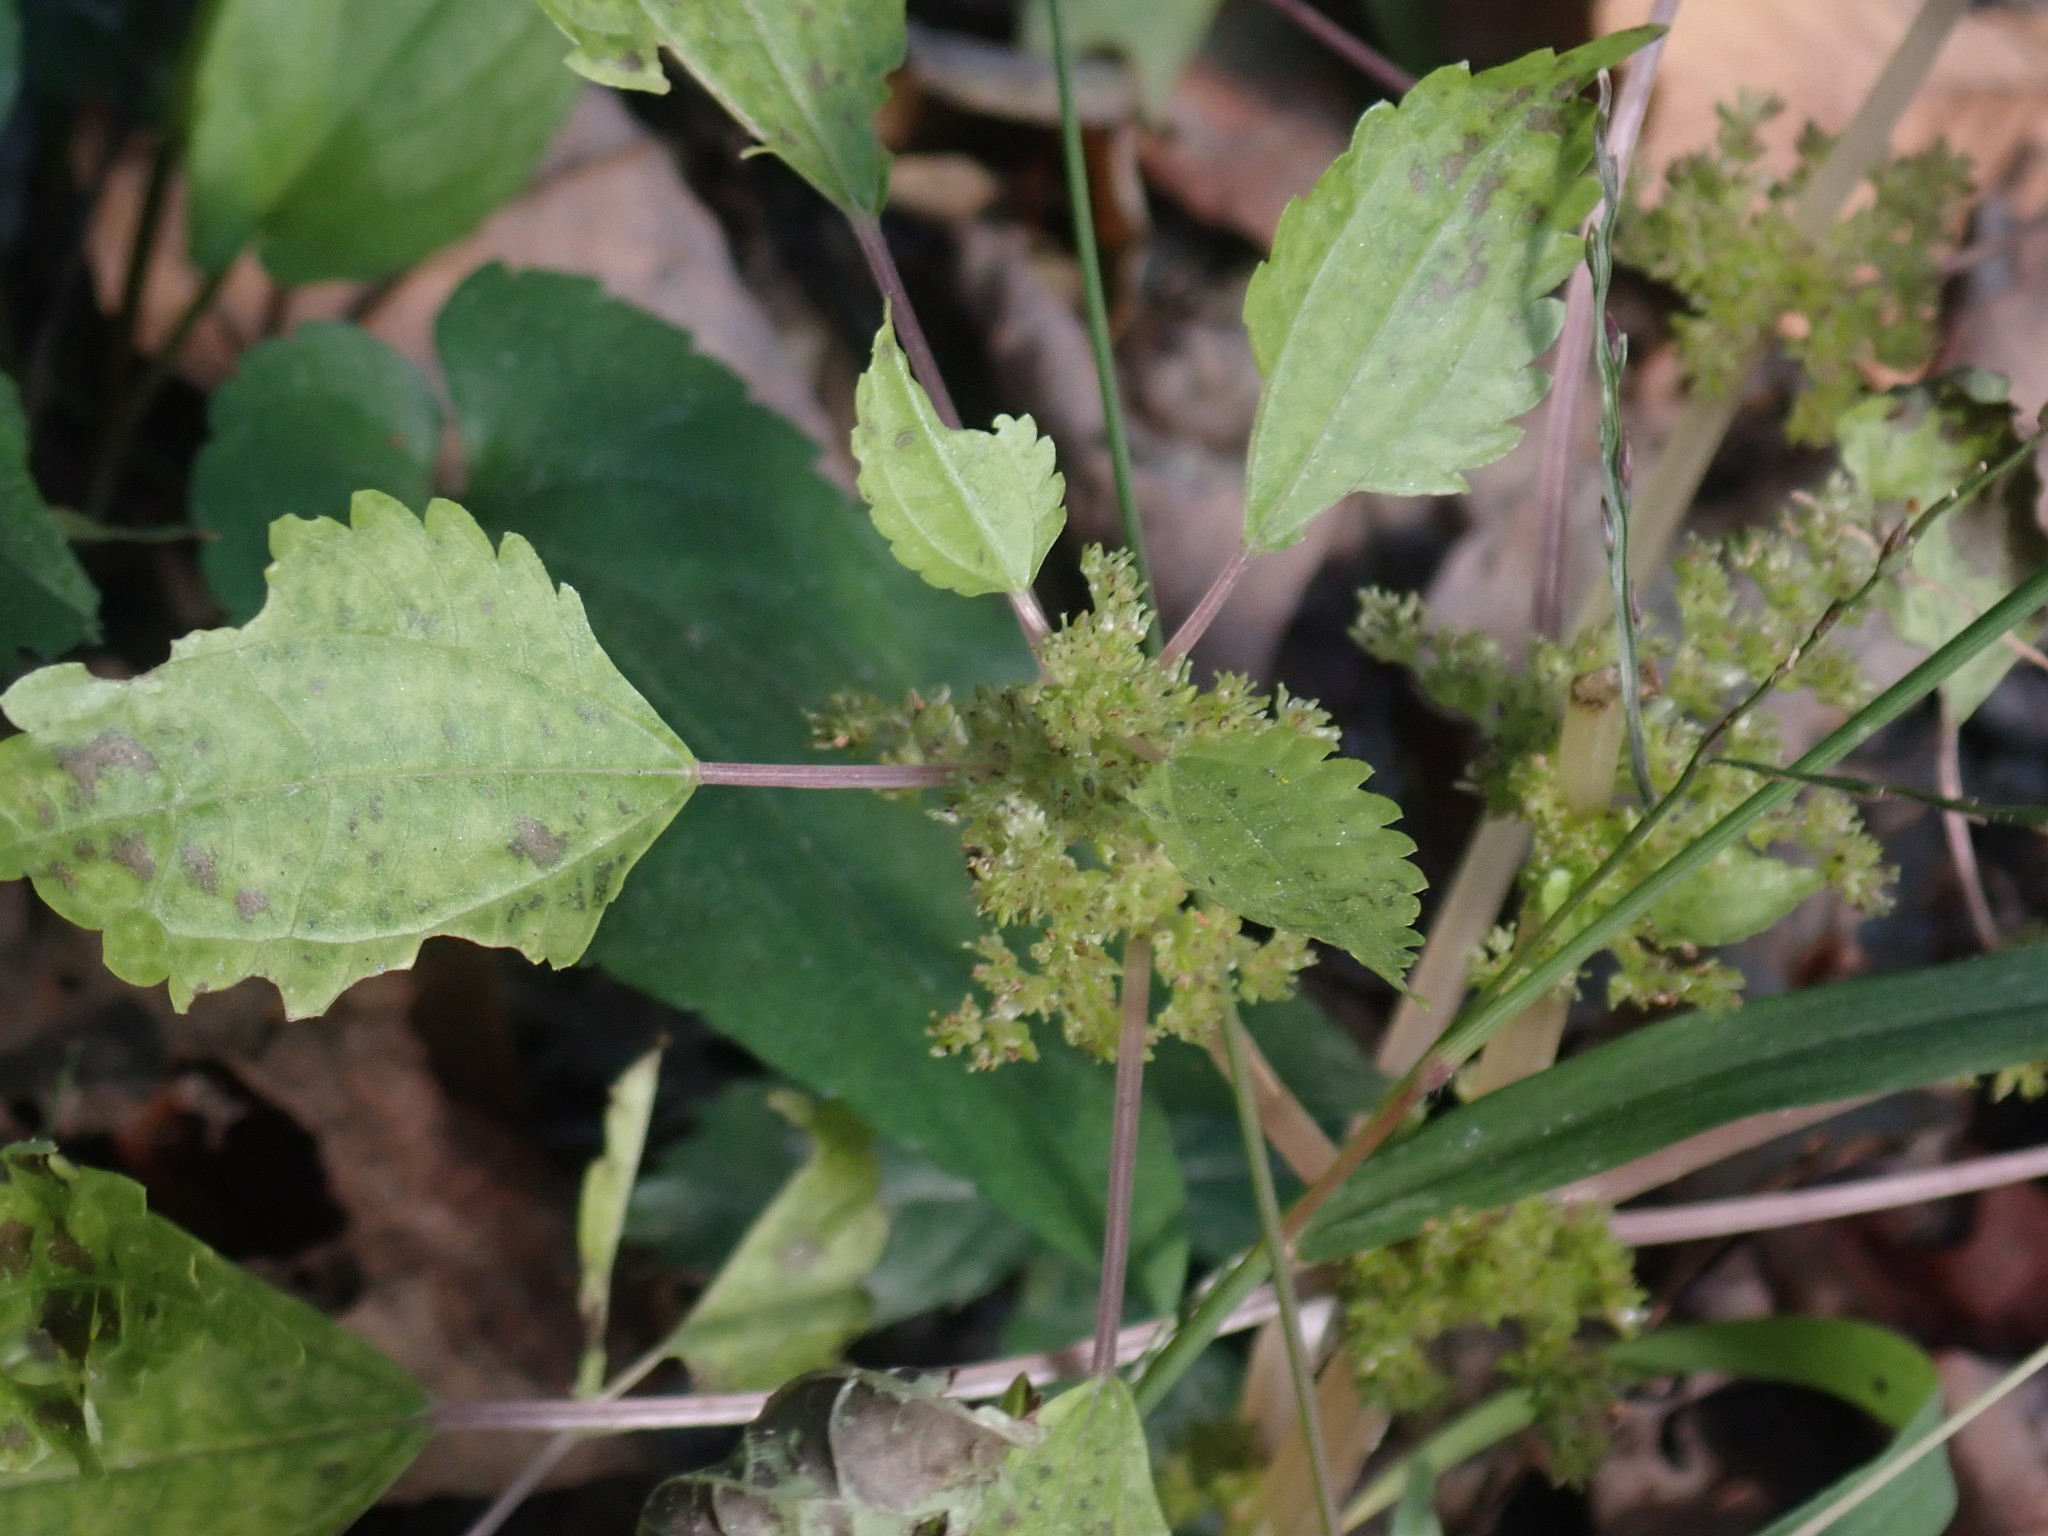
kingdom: Plantae
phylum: Tracheophyta
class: Magnoliopsida
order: Rosales
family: Urticaceae
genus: Pilea
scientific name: Pilea pumila
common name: Clearweed
